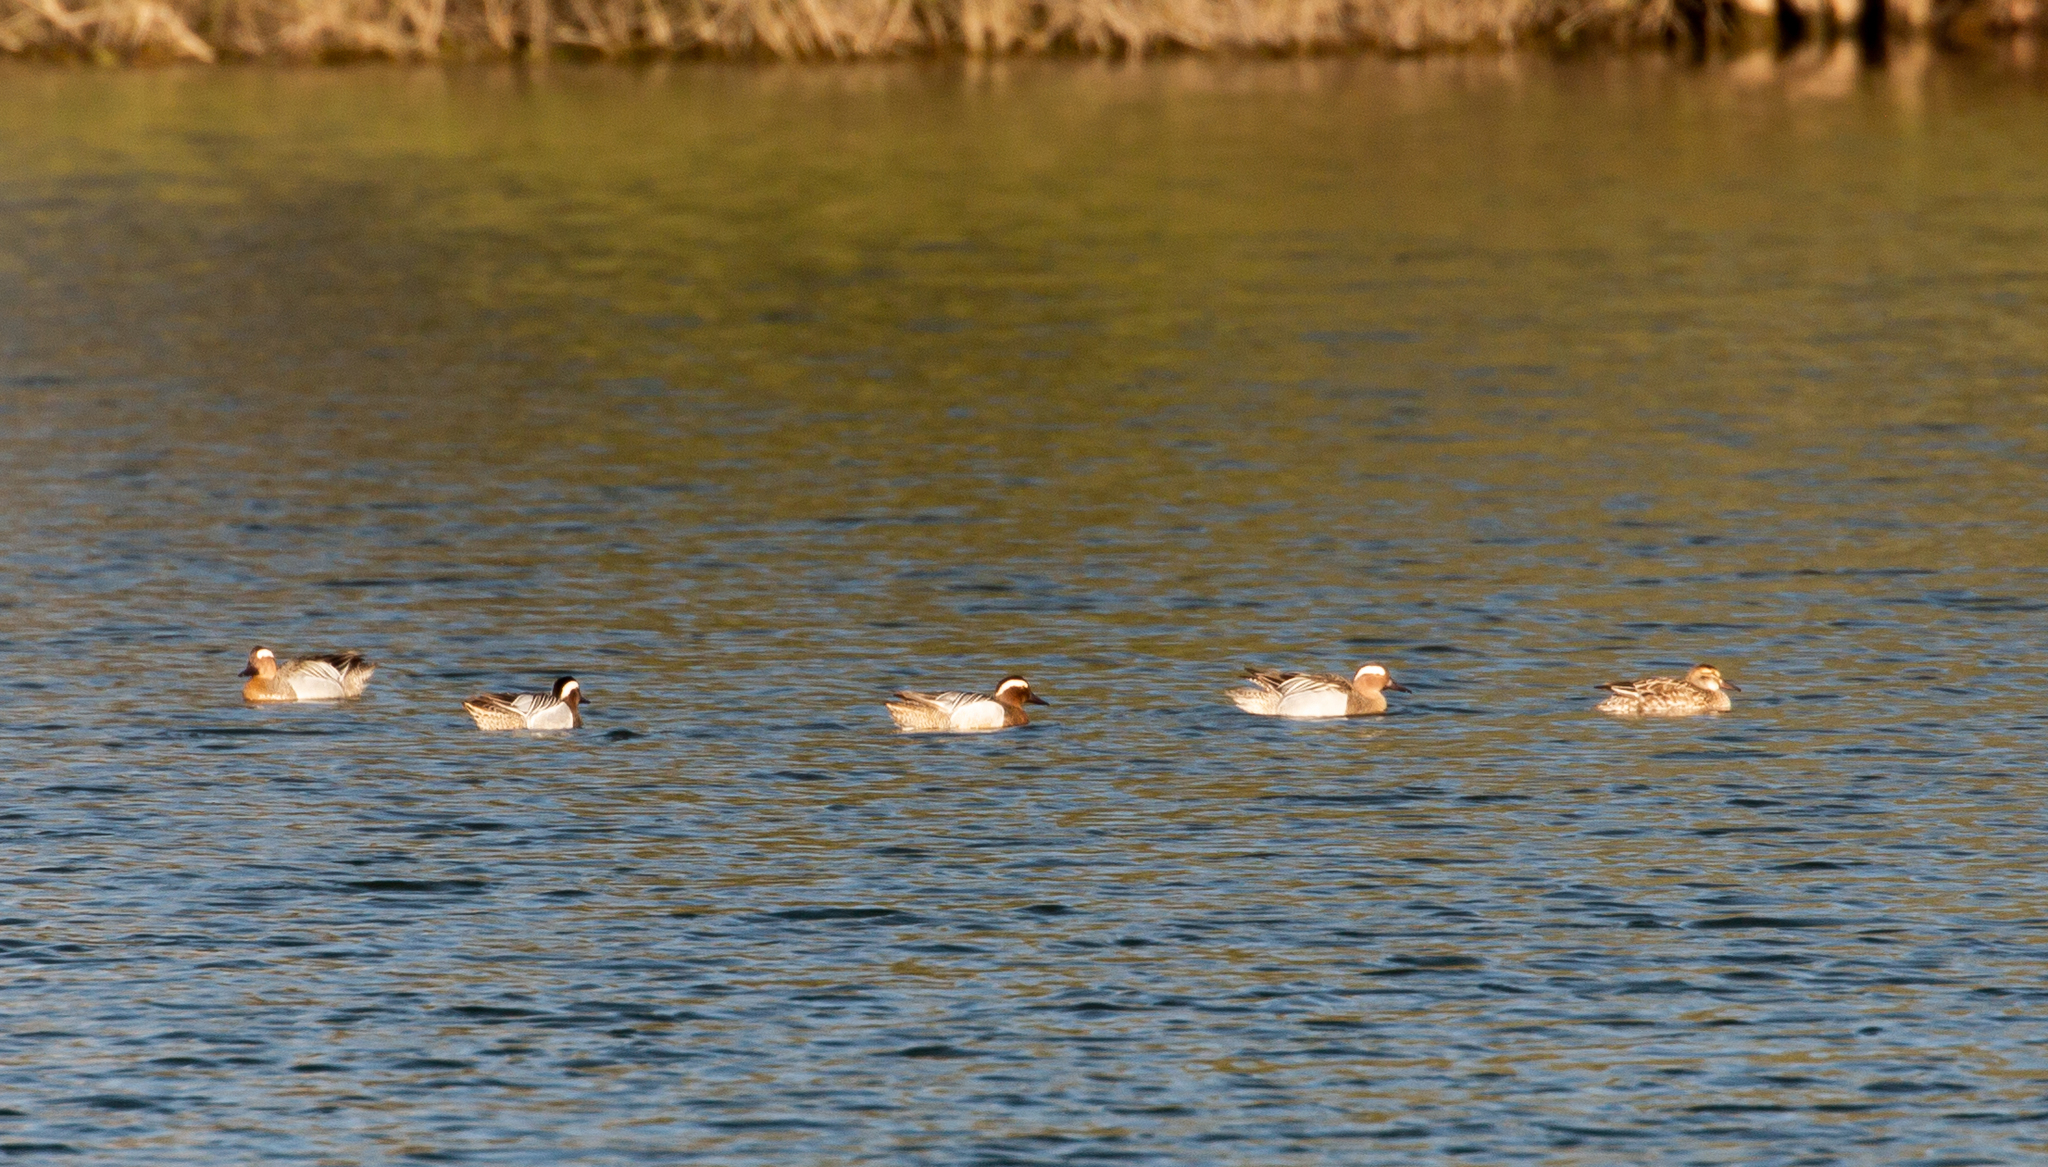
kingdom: Animalia
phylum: Chordata
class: Aves
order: Anseriformes
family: Anatidae
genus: Spatula
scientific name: Spatula querquedula
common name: Garganey
